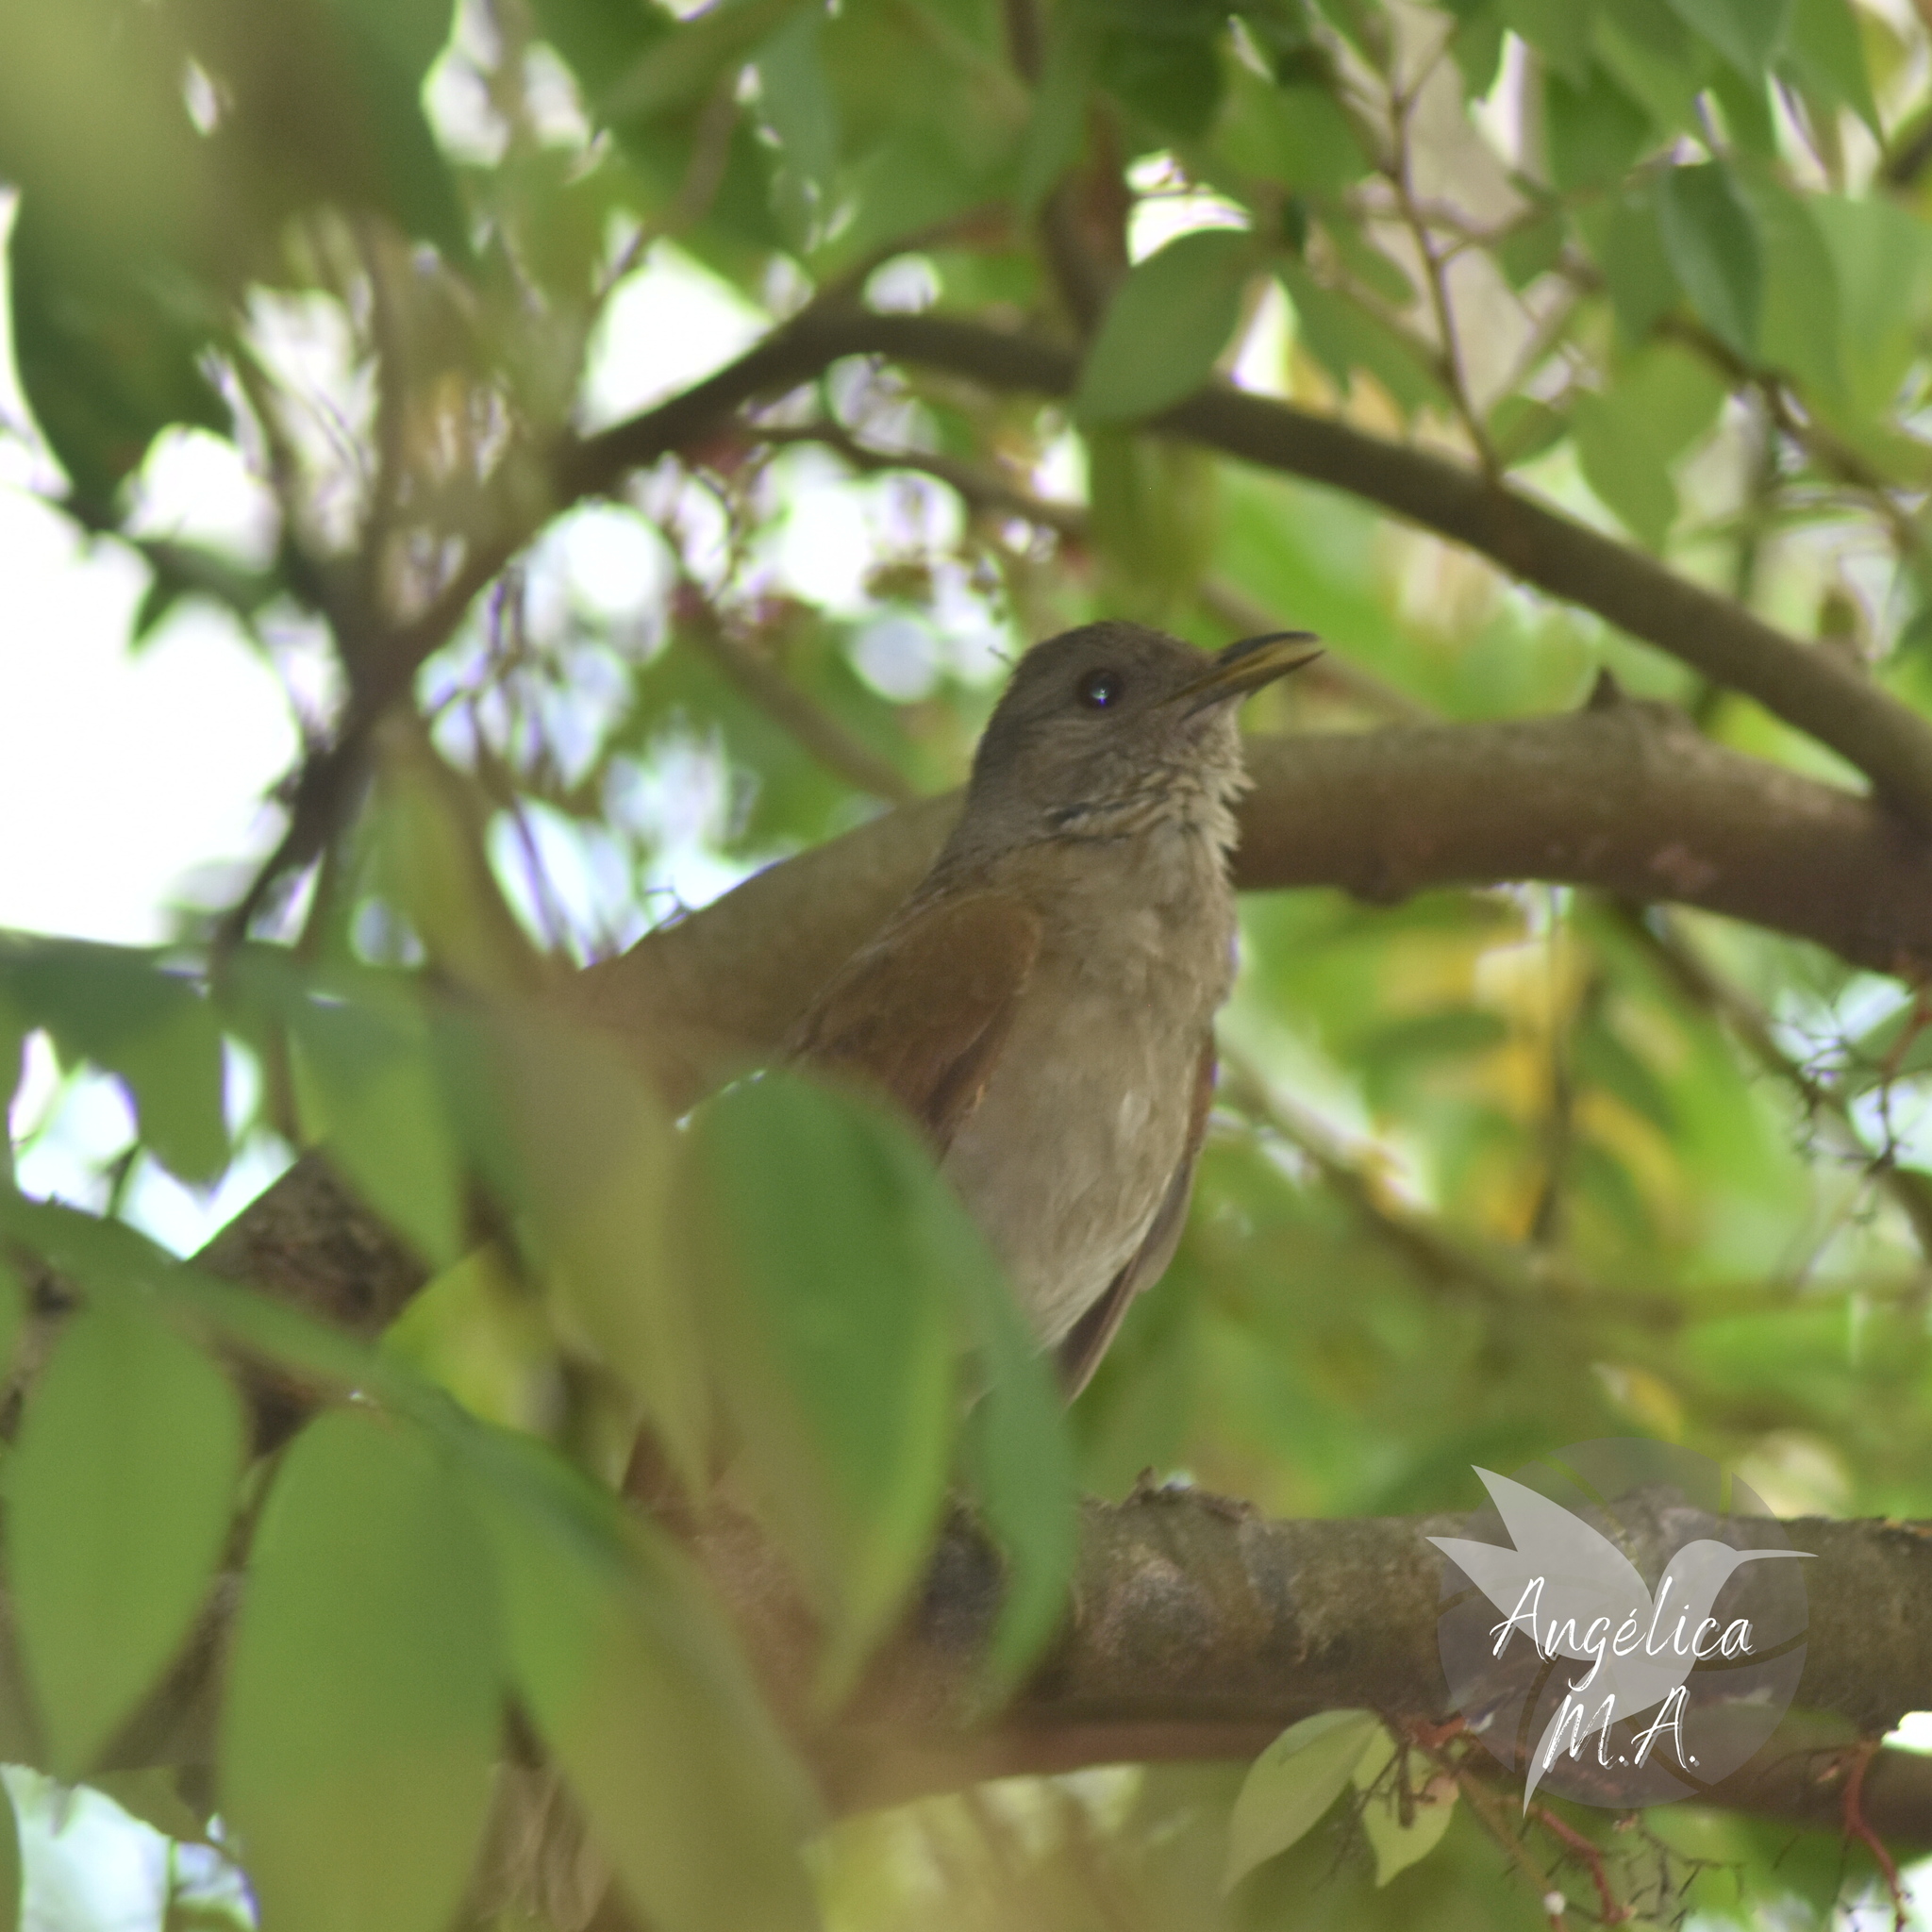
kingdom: Animalia
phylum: Chordata
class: Aves
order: Passeriformes
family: Turdidae
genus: Turdus
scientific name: Turdus leucomelas
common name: Pale-breasted thrush
